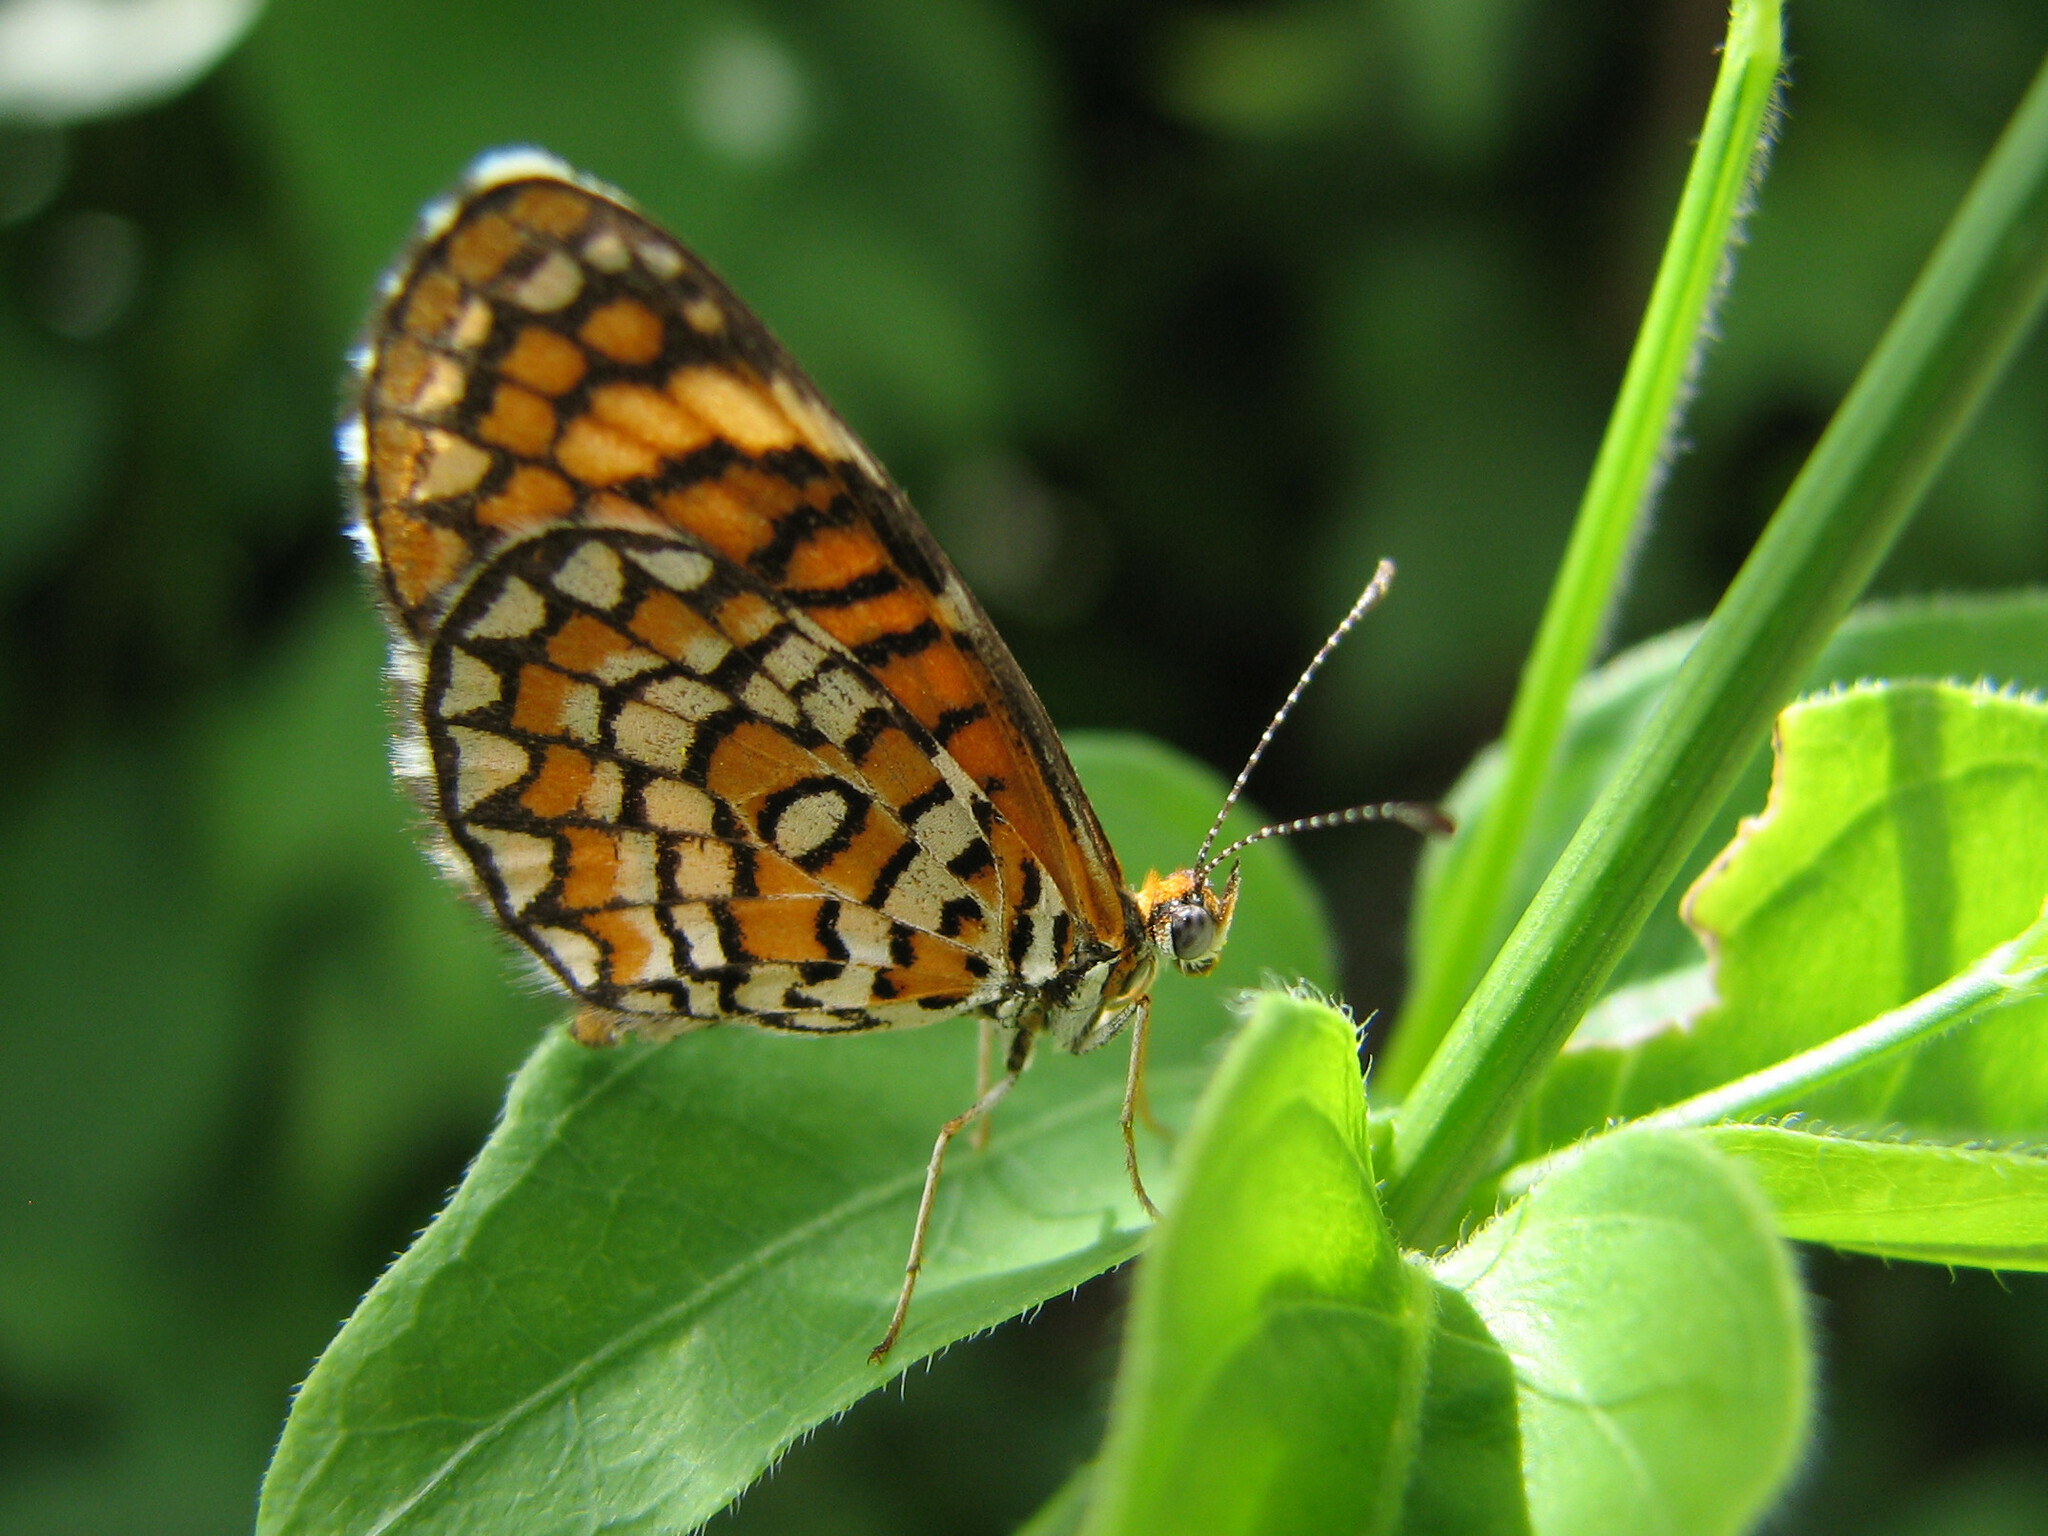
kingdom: Animalia
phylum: Arthropoda
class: Insecta
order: Lepidoptera
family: Nymphalidae
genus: Dymasia
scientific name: Dymasia dymas
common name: Tiny checkerspot
